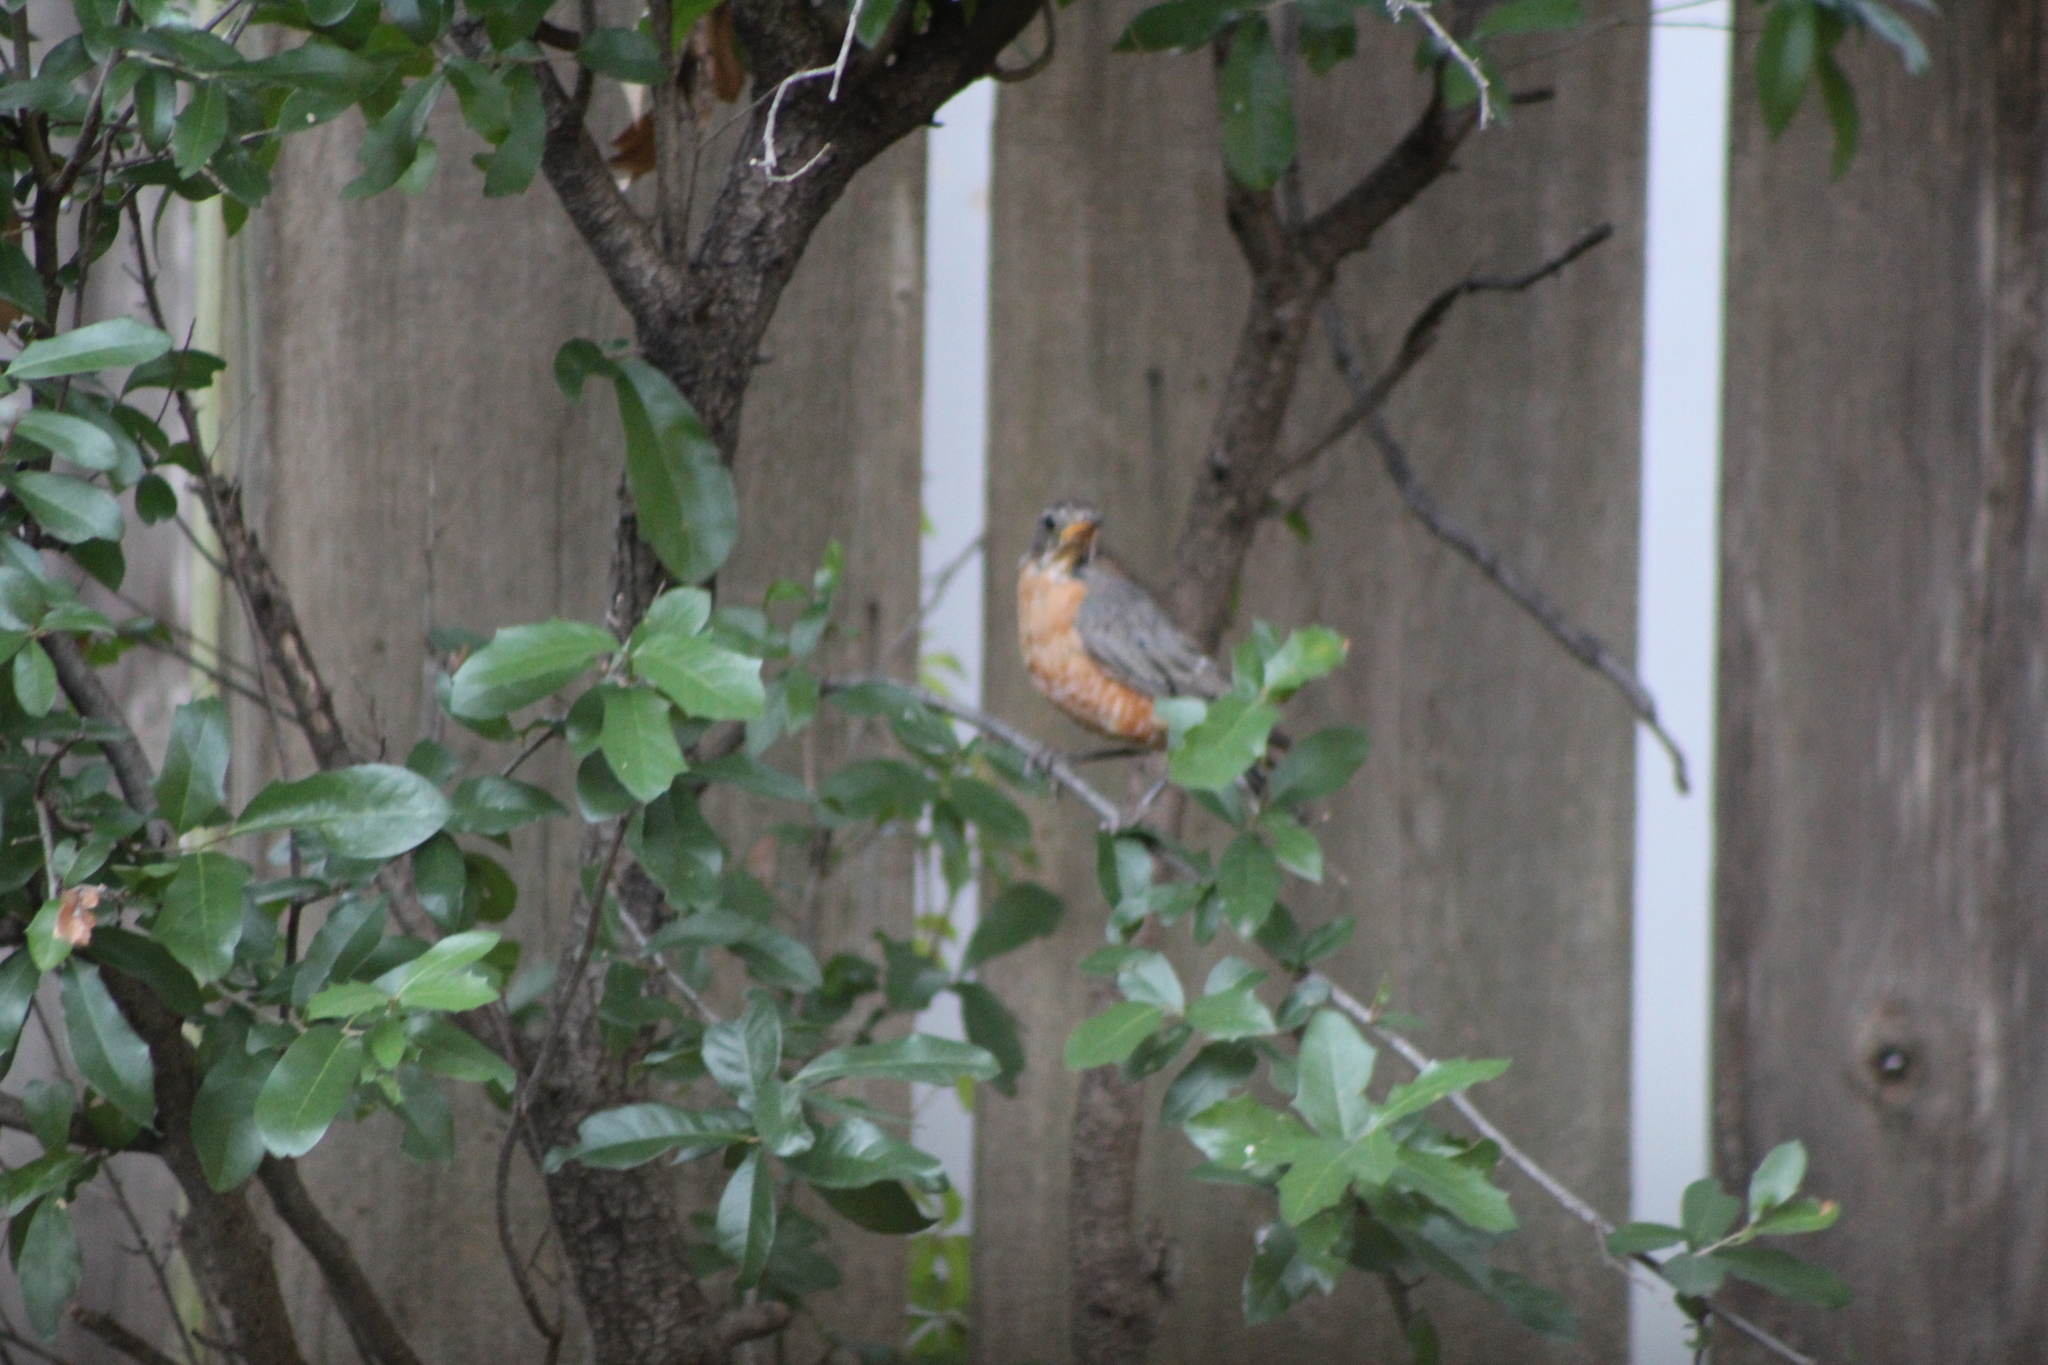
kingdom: Animalia
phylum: Chordata
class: Aves
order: Passeriformes
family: Turdidae
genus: Turdus
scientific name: Turdus migratorius
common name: American robin
